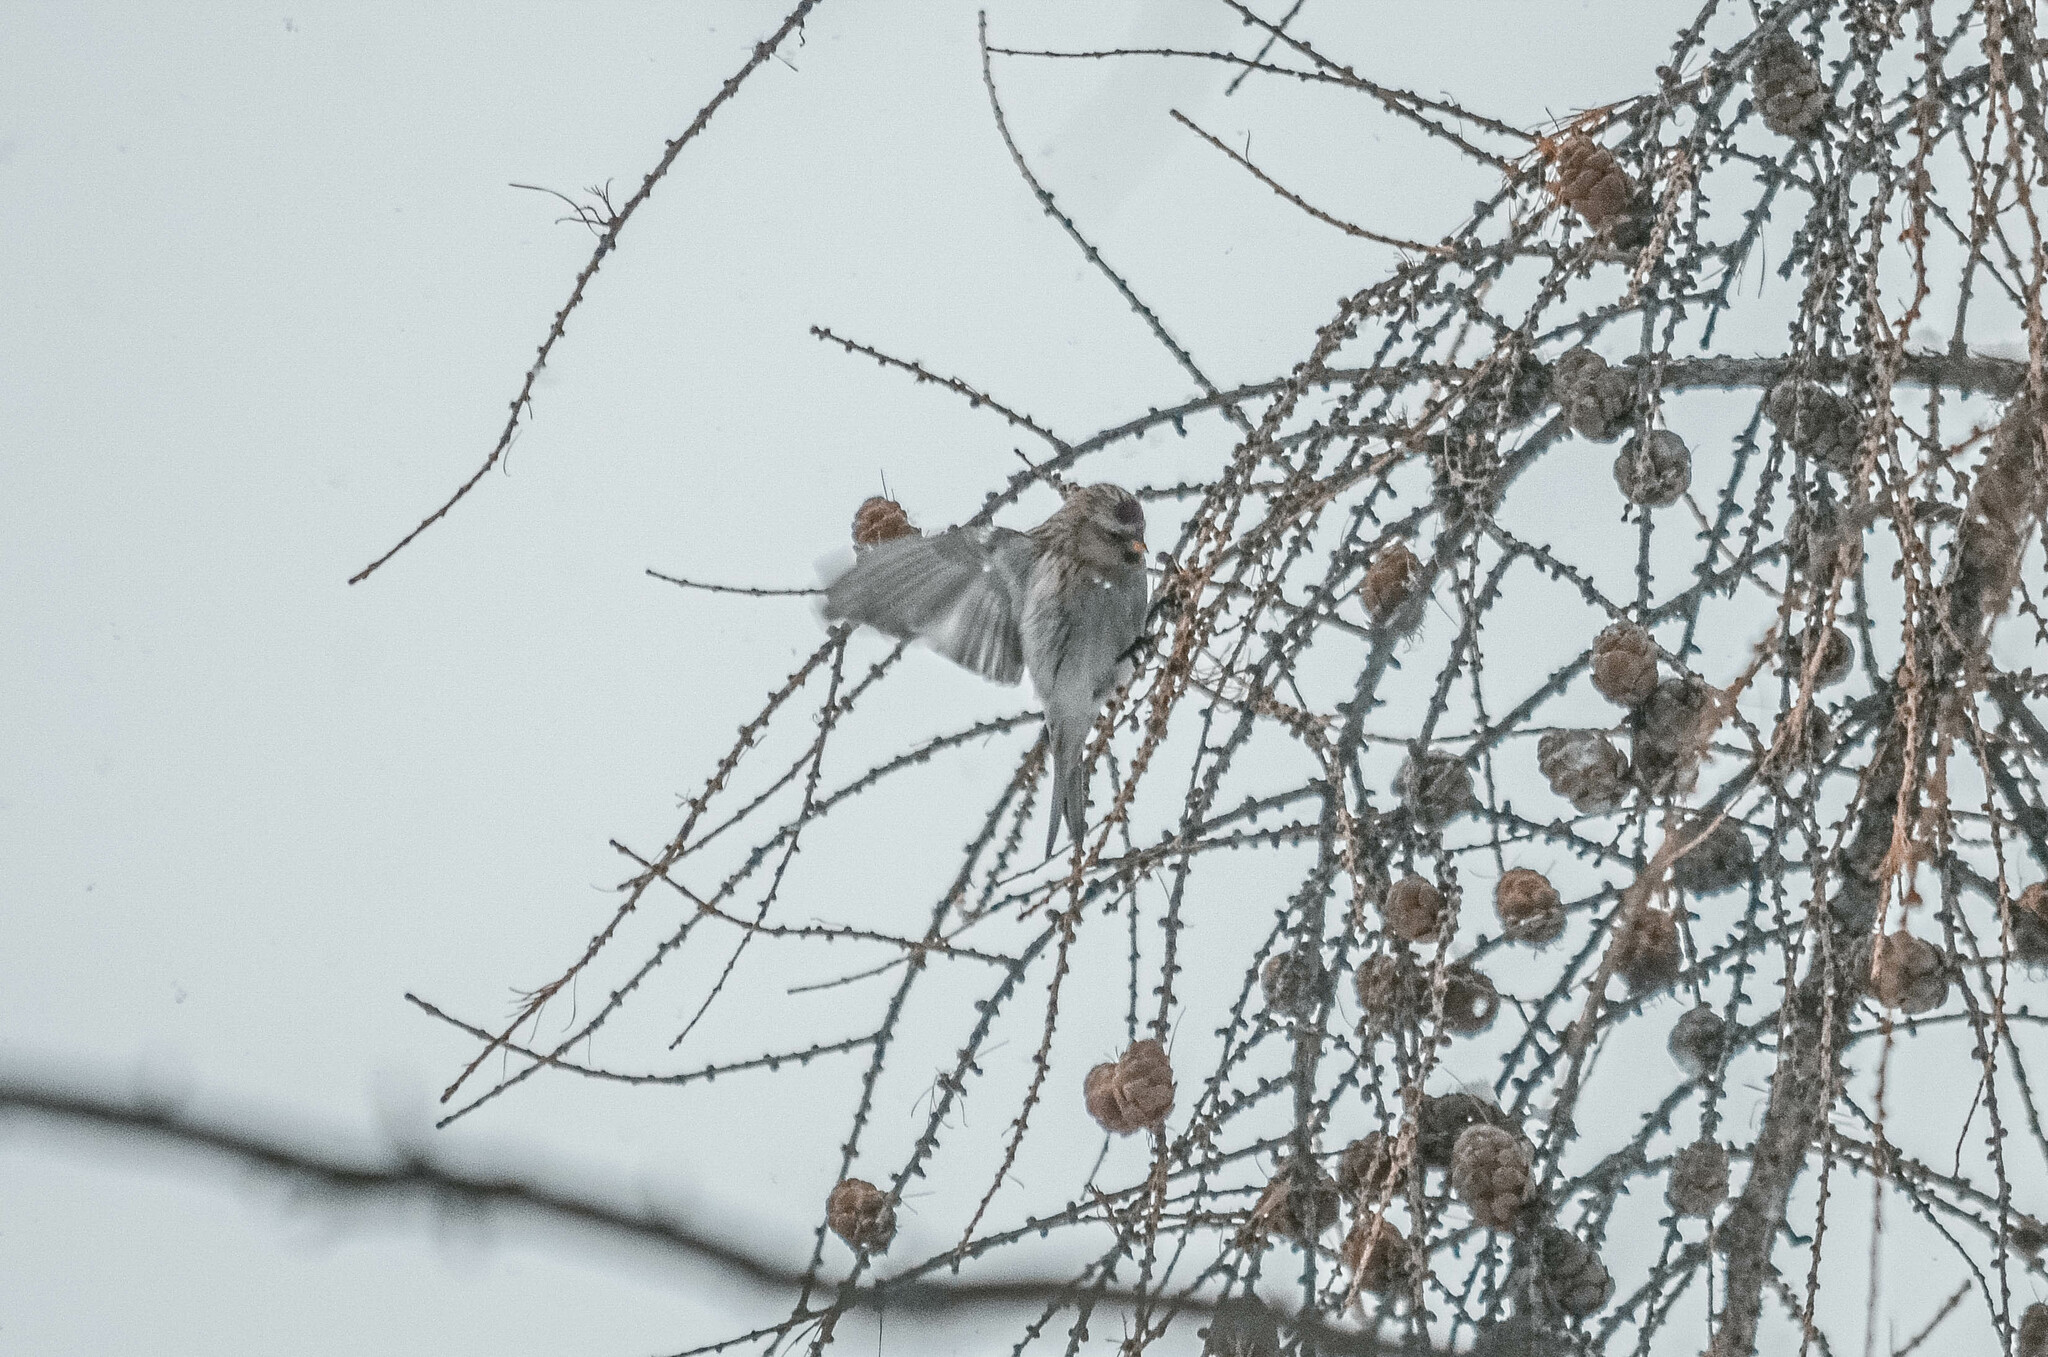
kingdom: Animalia
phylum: Chordata
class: Aves
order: Passeriformes
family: Fringillidae
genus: Acanthis
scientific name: Acanthis flammea
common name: Common redpoll
